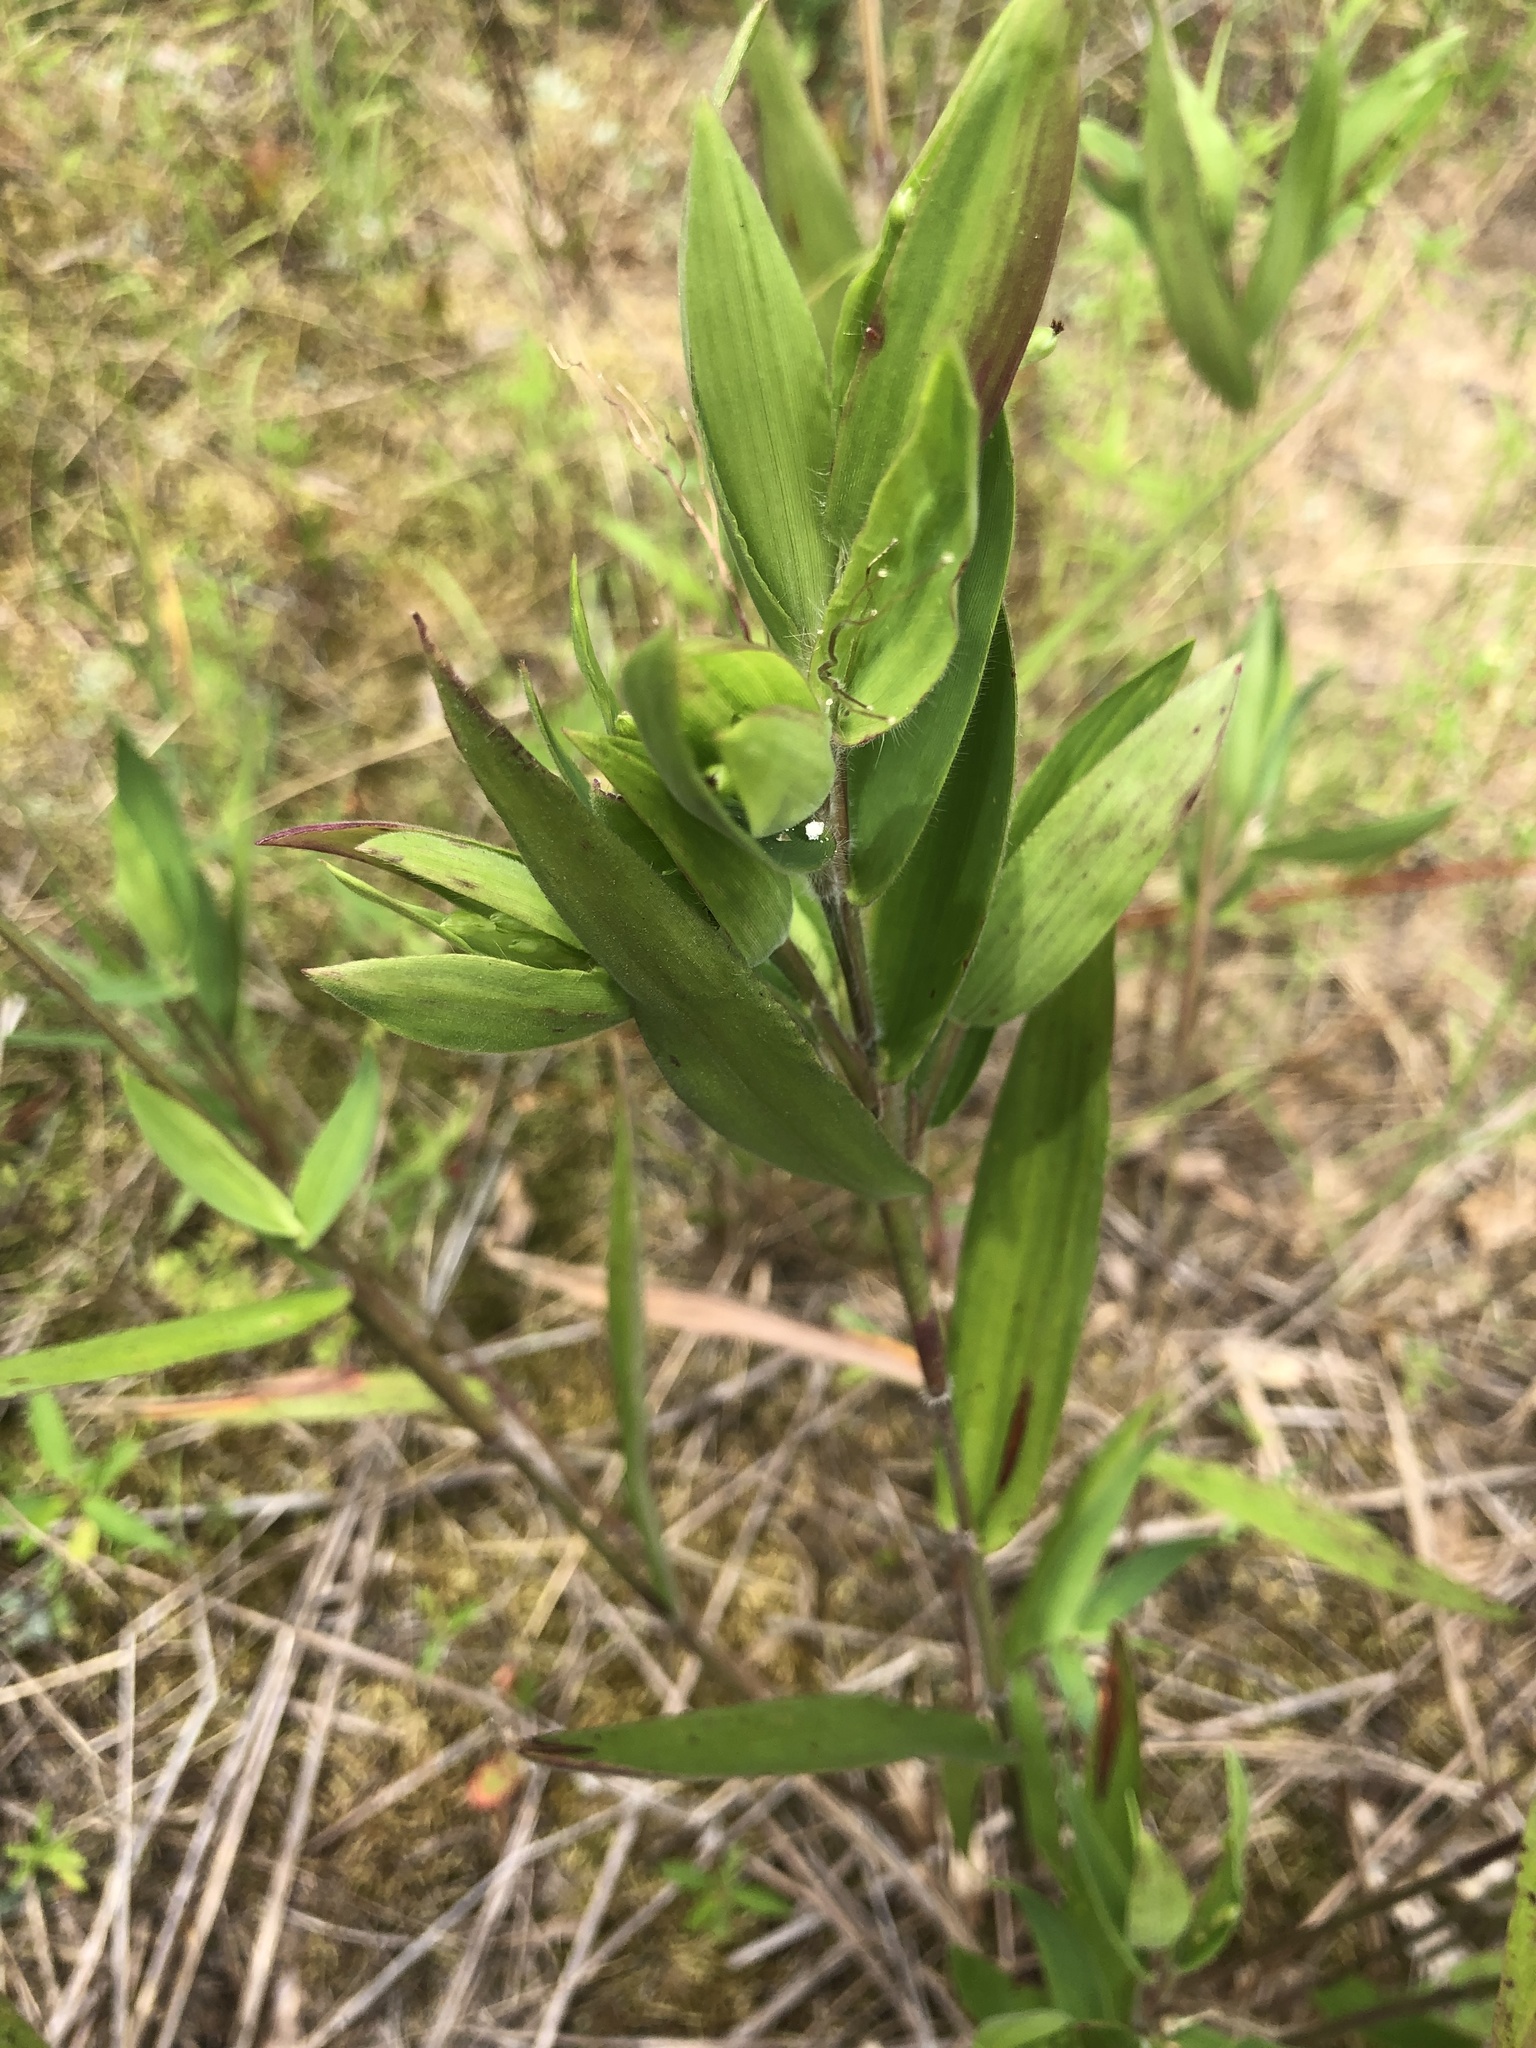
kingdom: Plantae
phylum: Tracheophyta
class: Liliopsida
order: Poales
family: Poaceae
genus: Dichanthelium
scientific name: Dichanthelium ravenelii
